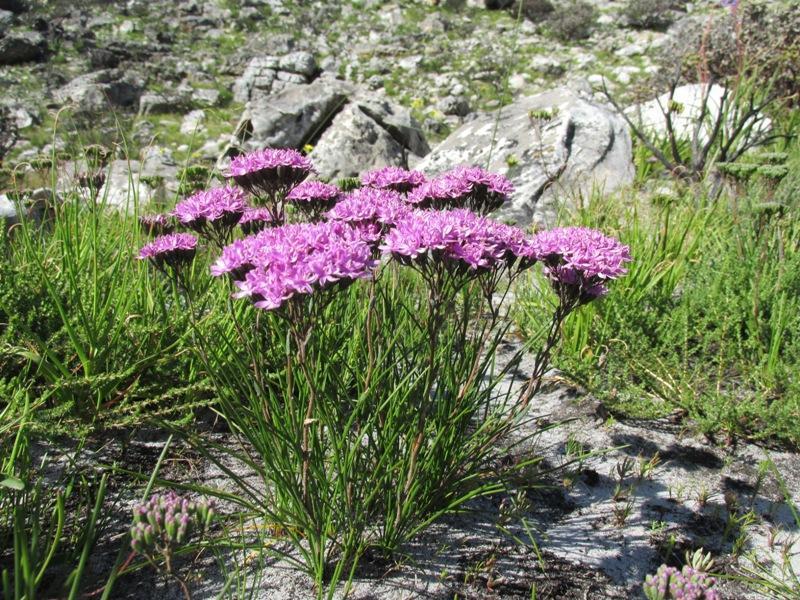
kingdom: Plantae
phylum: Tracheophyta
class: Magnoliopsida
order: Asterales
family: Asteraceae
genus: Corymbium
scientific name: Corymbium africanum
